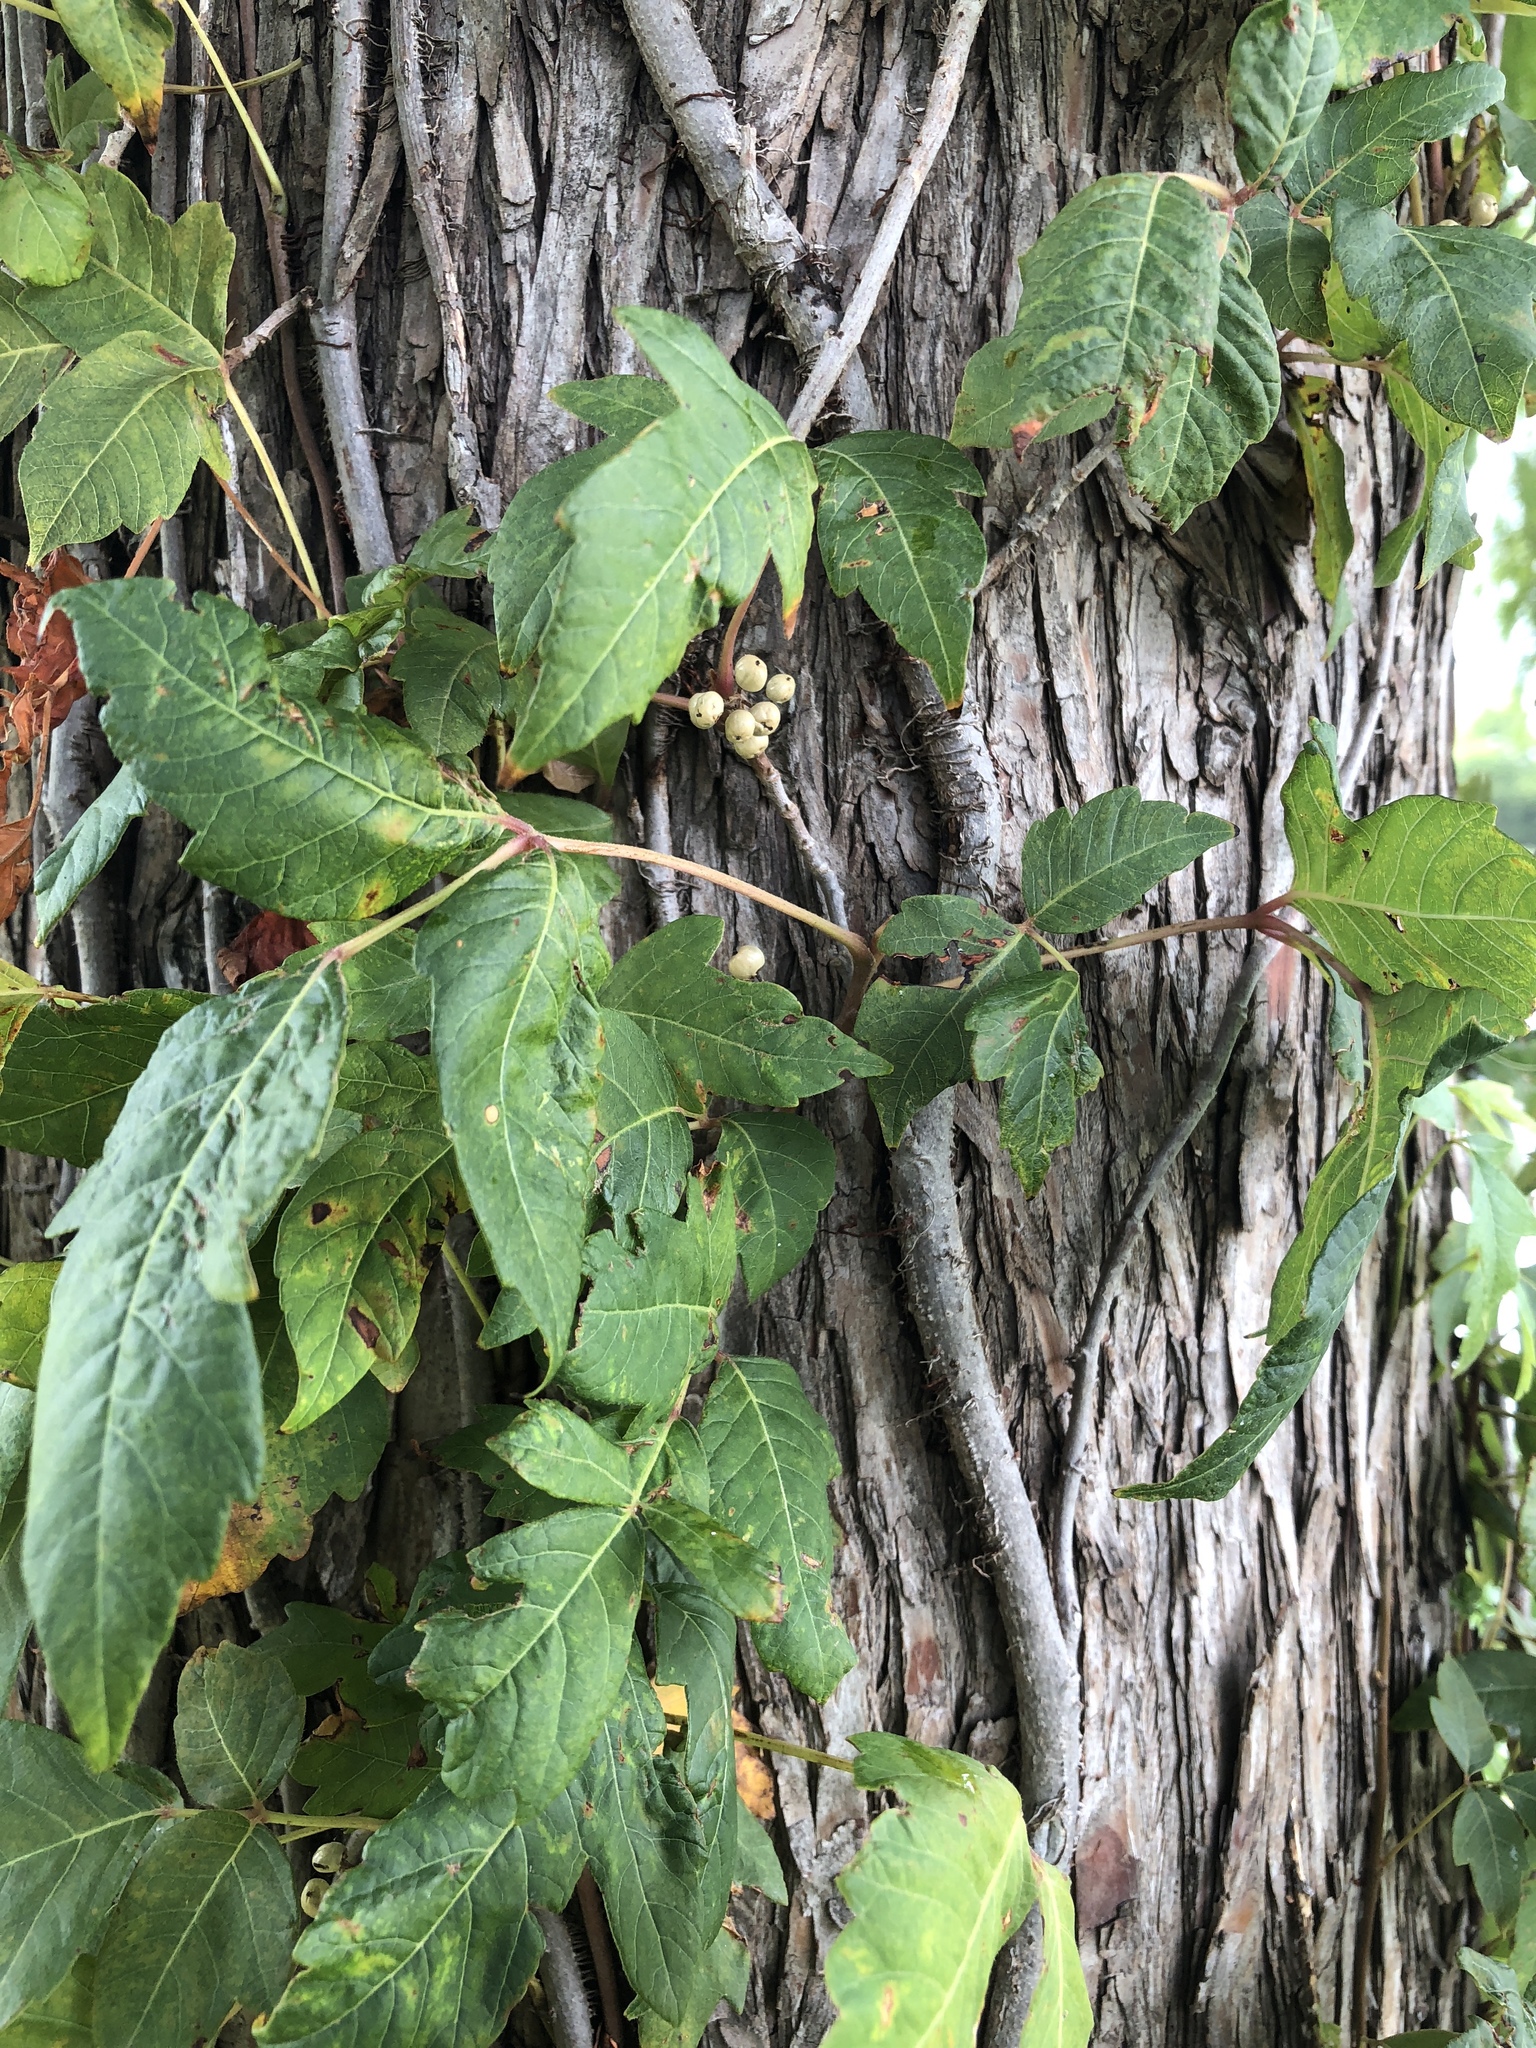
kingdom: Plantae
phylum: Tracheophyta
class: Magnoliopsida
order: Sapindales
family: Anacardiaceae
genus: Toxicodendron
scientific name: Toxicodendron radicans
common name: Poison ivy
